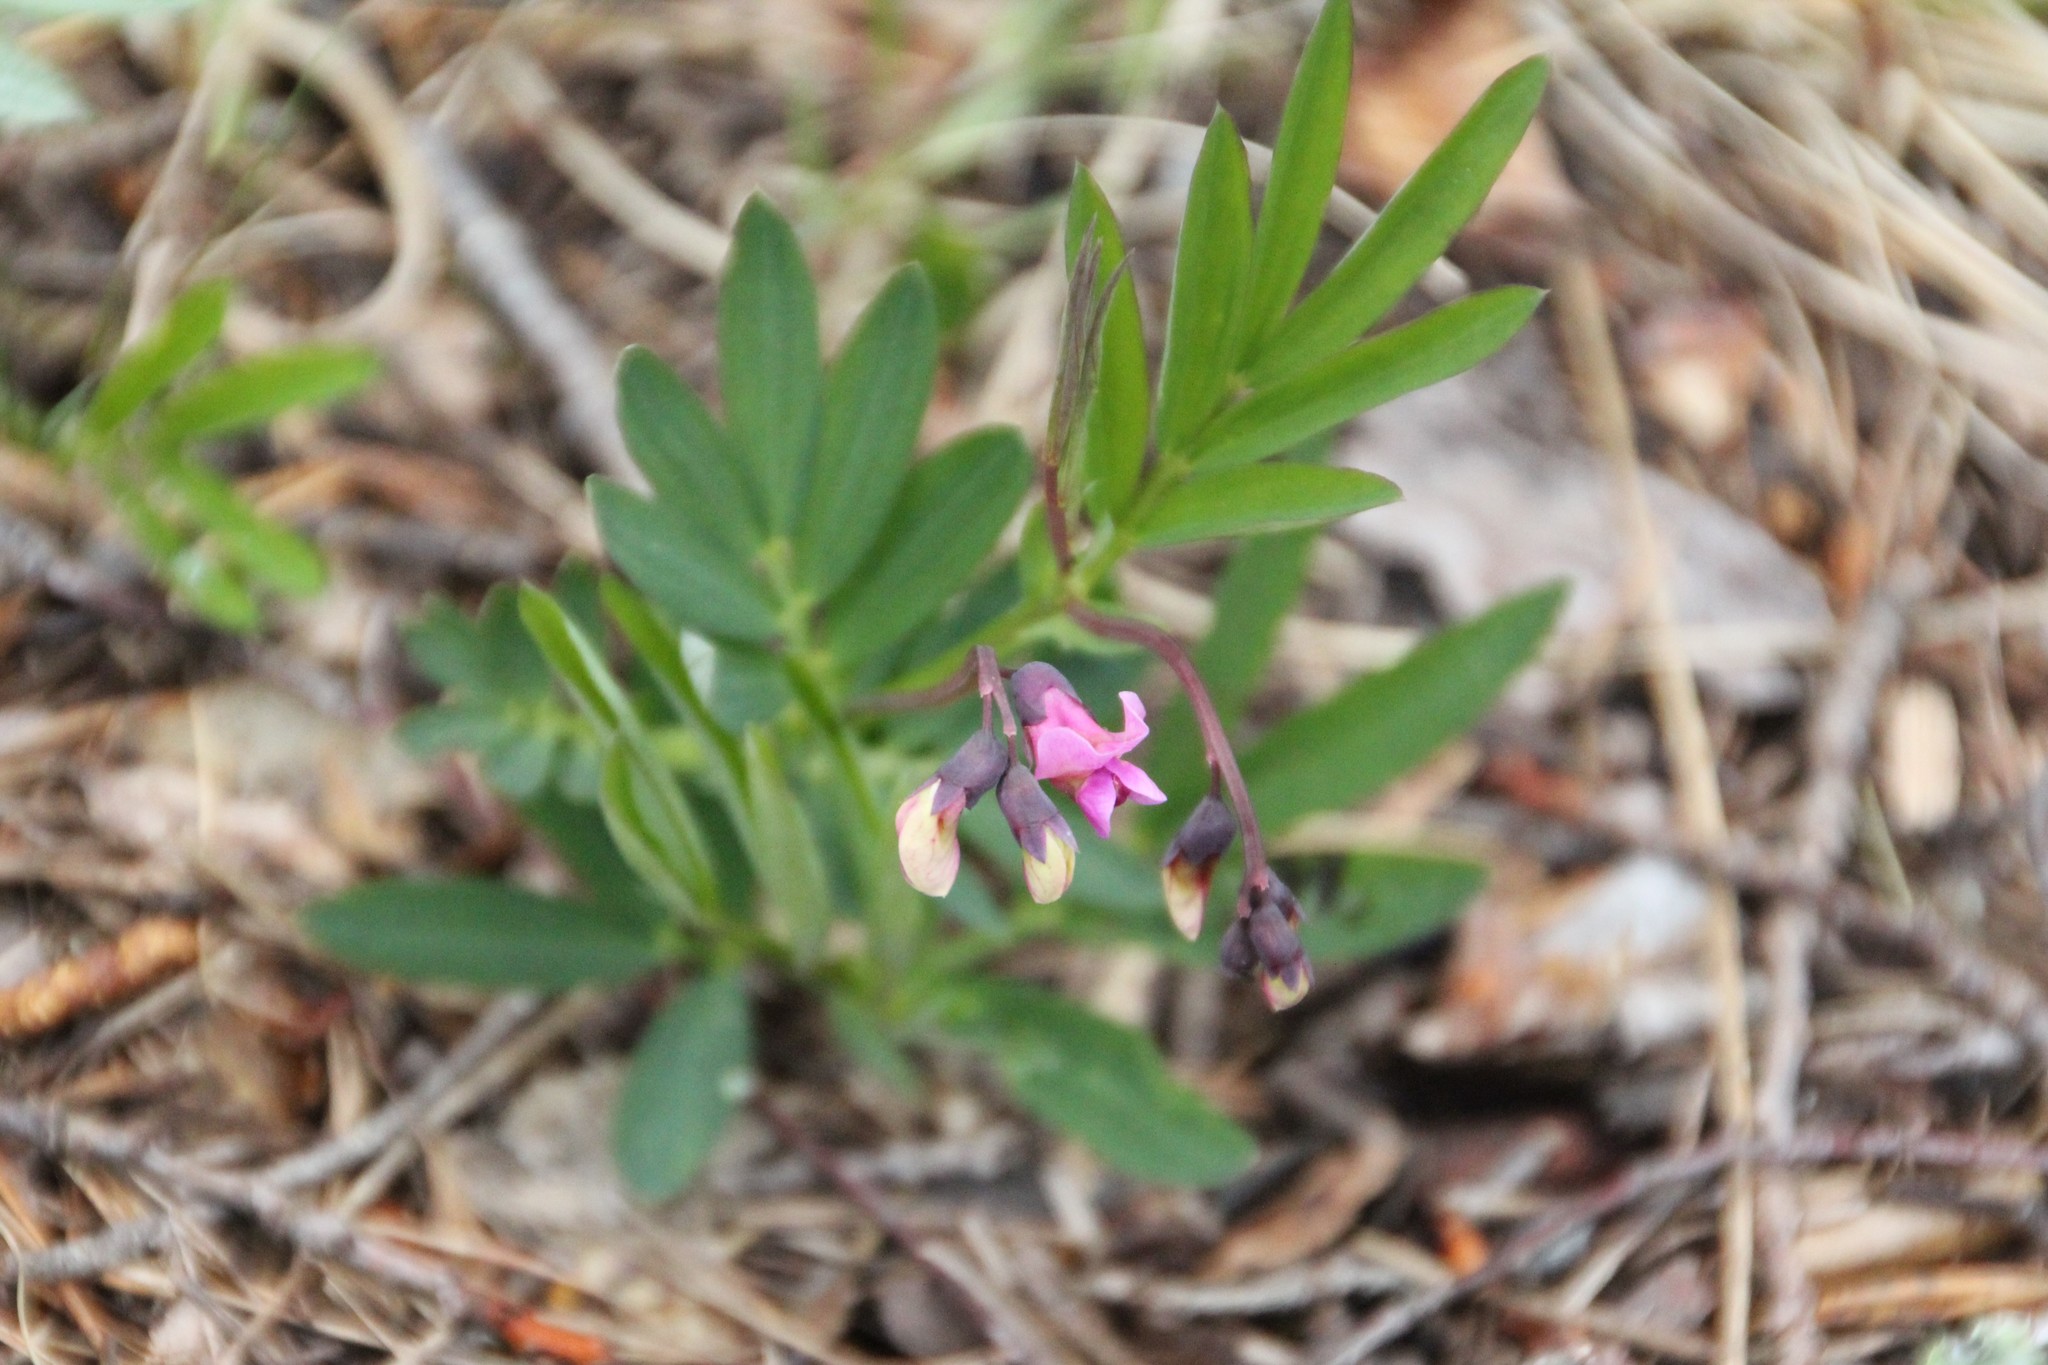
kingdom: Plantae
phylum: Tracheophyta
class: Magnoliopsida
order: Fabales
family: Fabaceae
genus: Lathyrus
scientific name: Lathyrus linifolius
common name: Bitter-vetch
